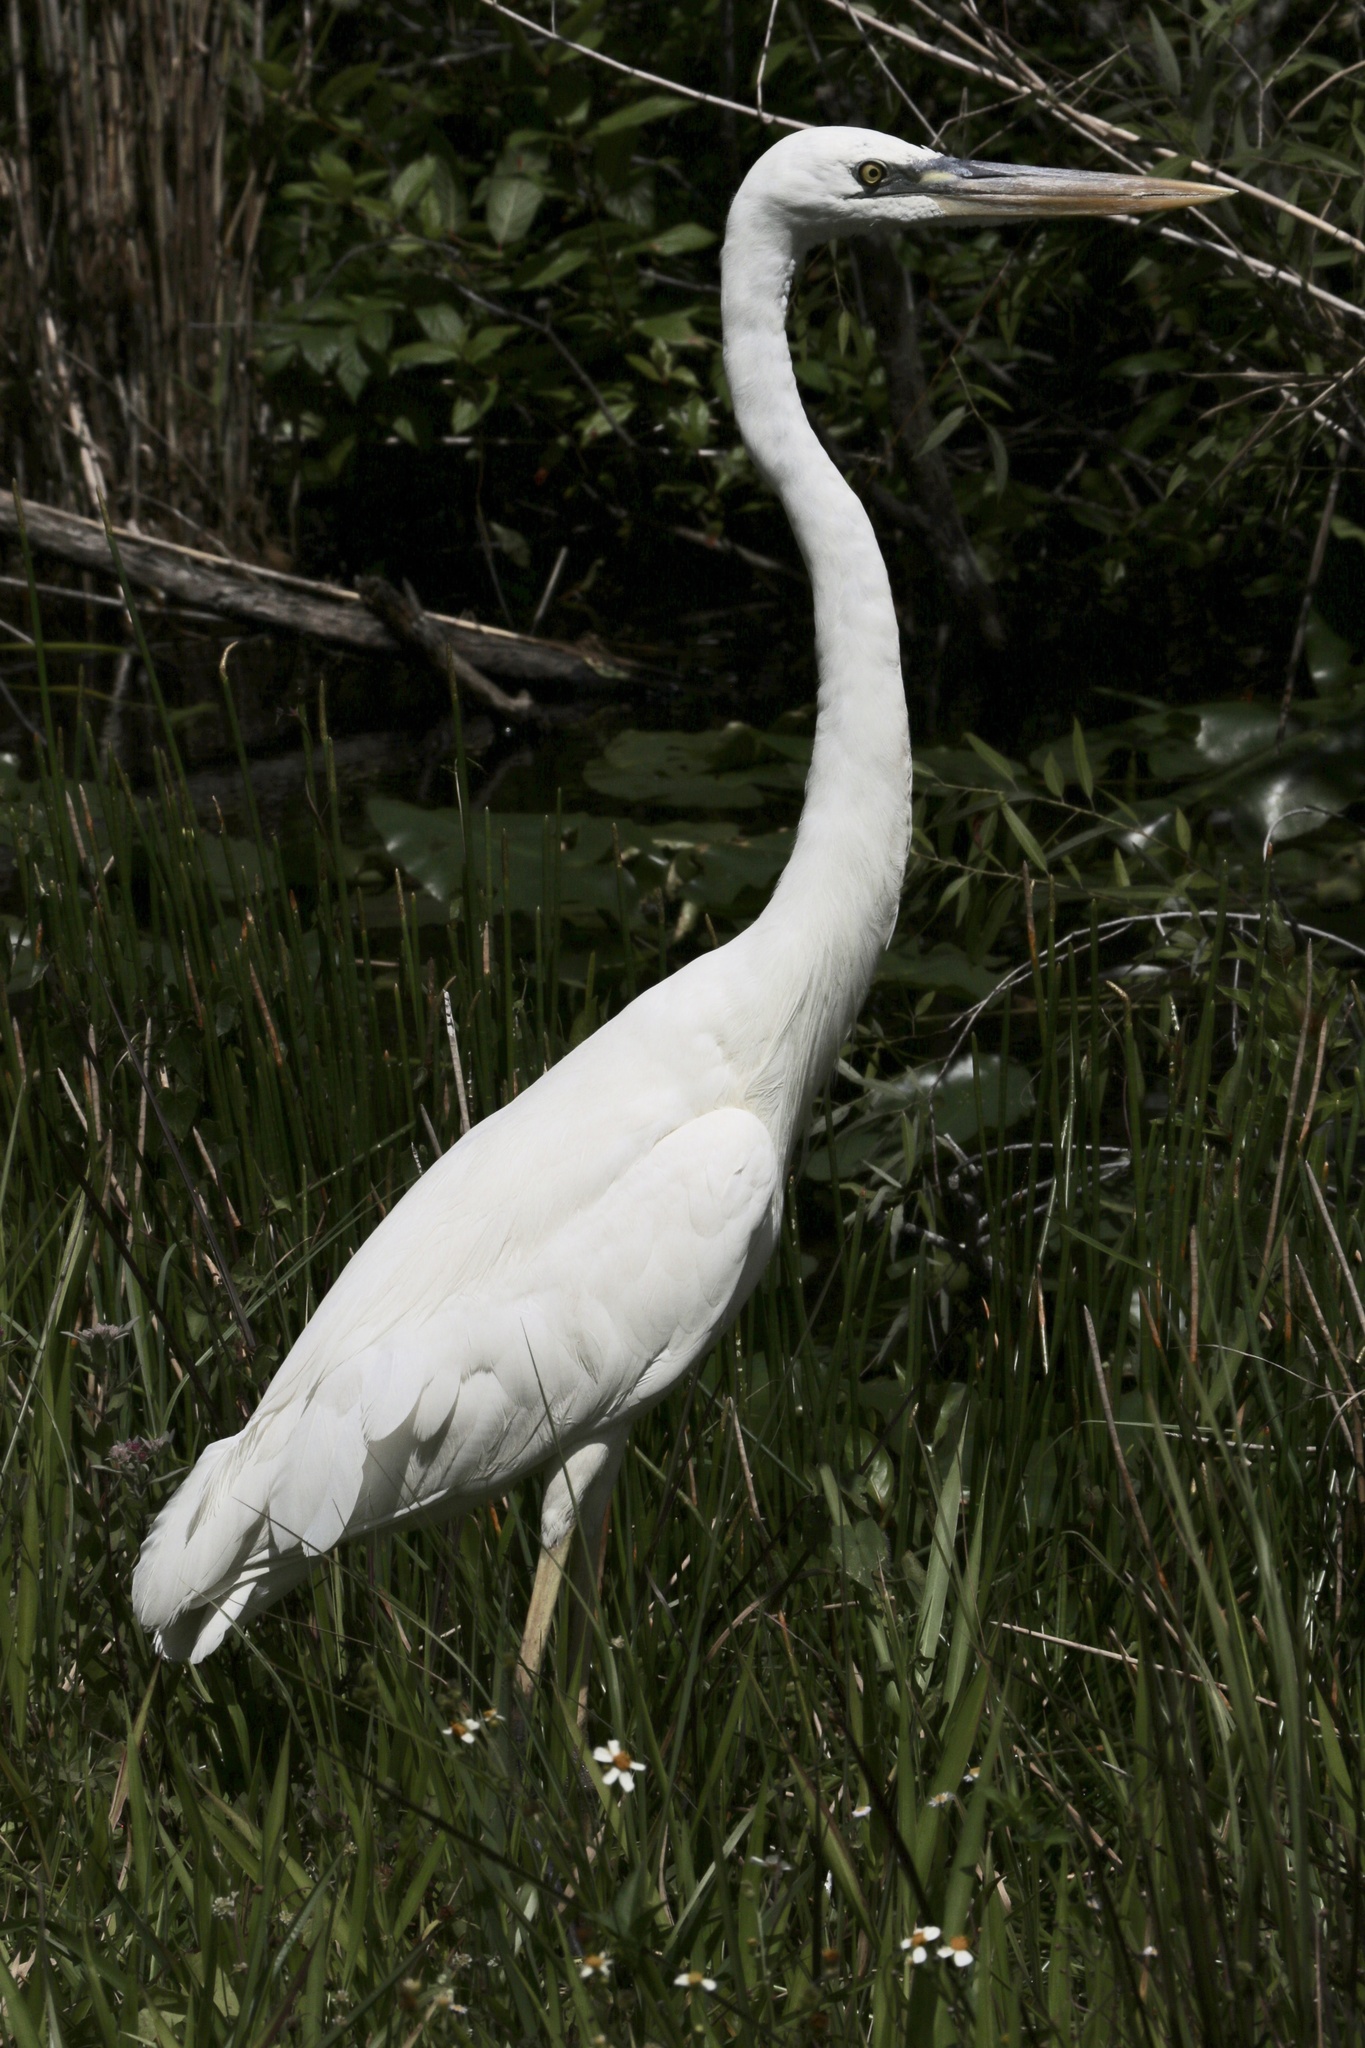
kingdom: Animalia
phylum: Chordata
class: Aves
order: Pelecaniformes
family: Ardeidae
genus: Ardea
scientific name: Ardea herodias
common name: Great blue heron
